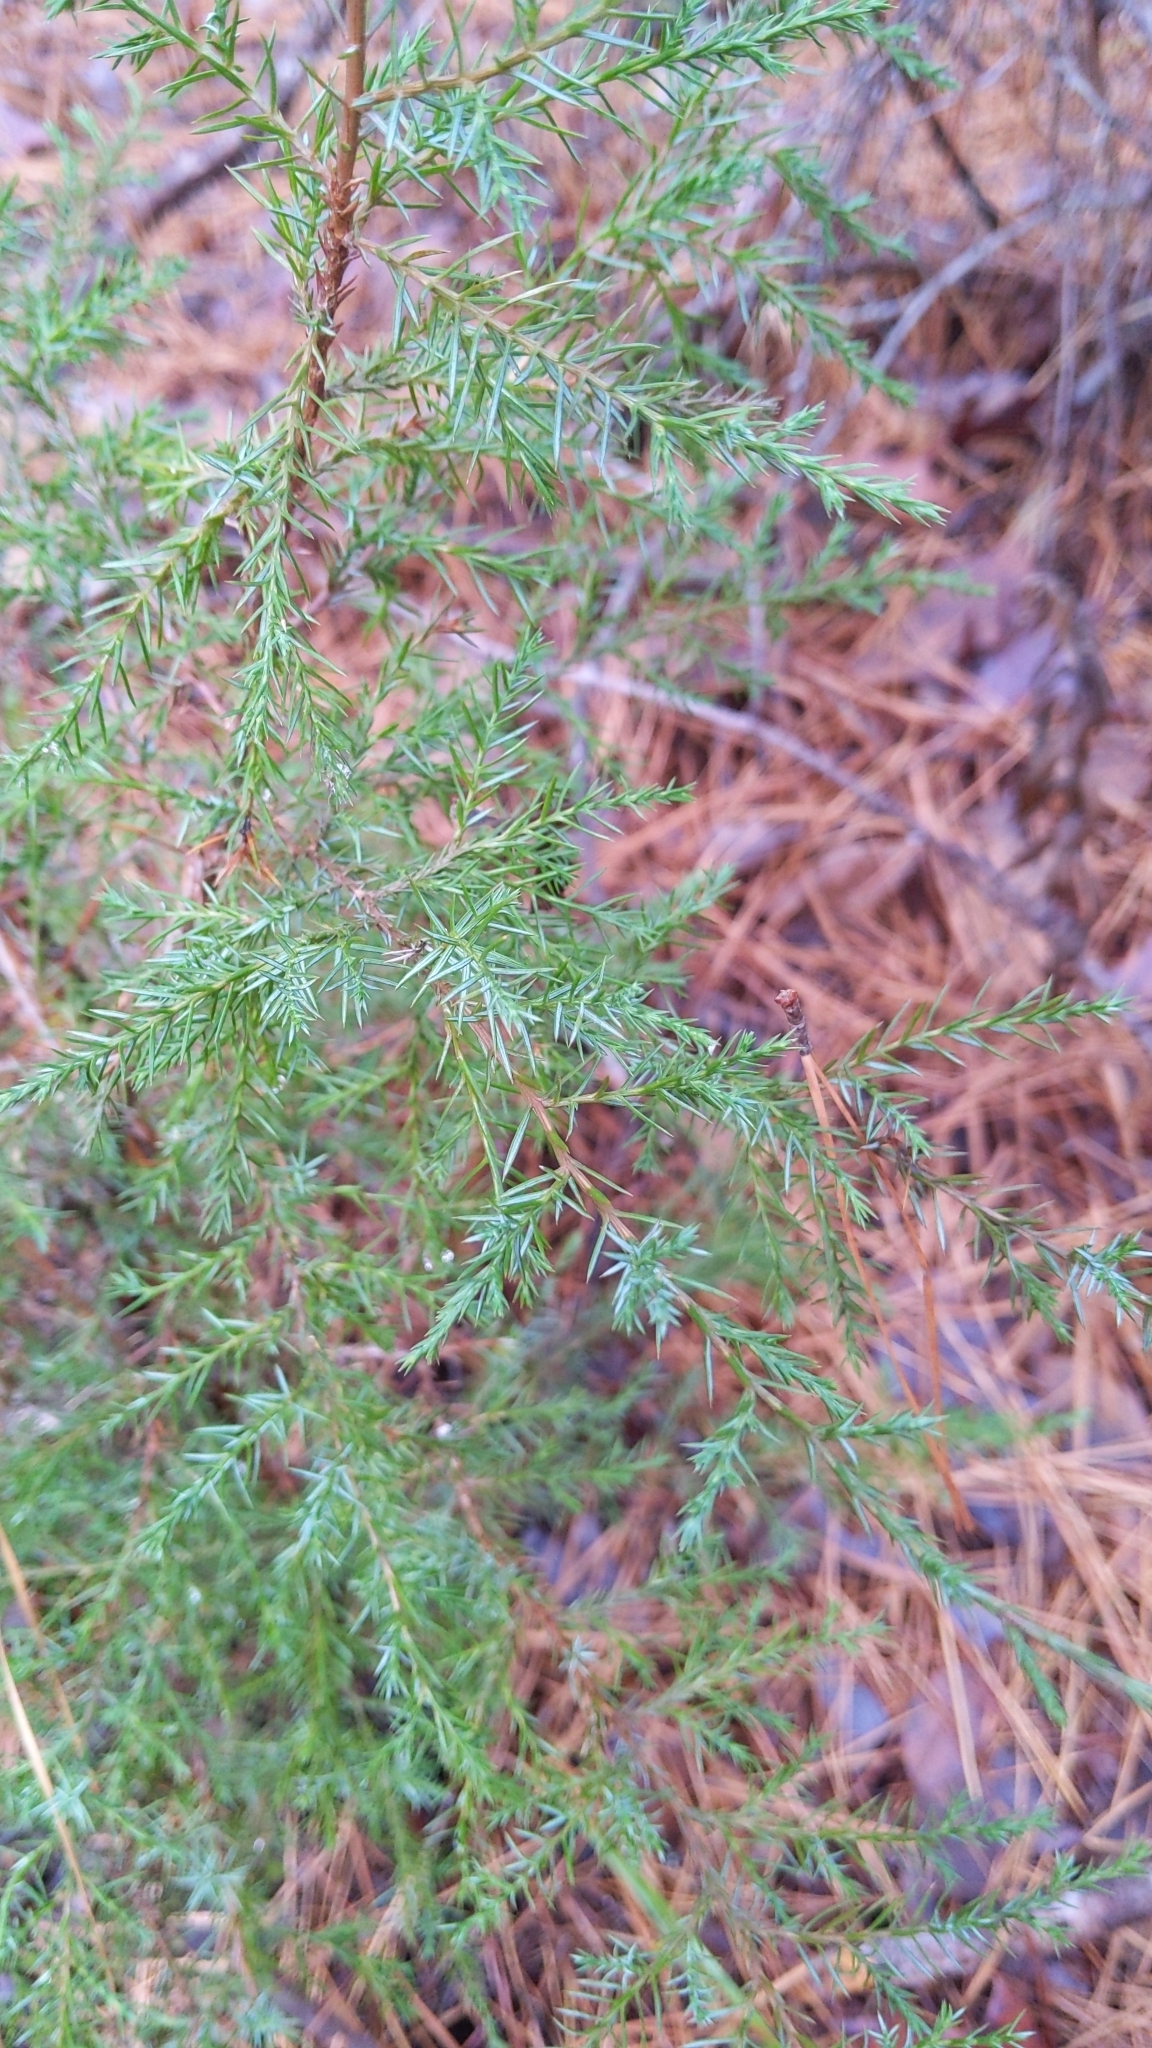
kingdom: Plantae
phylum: Tracheophyta
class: Pinopsida
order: Pinales
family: Cupressaceae
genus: Juniperus
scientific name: Juniperus virginiana
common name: Red juniper
